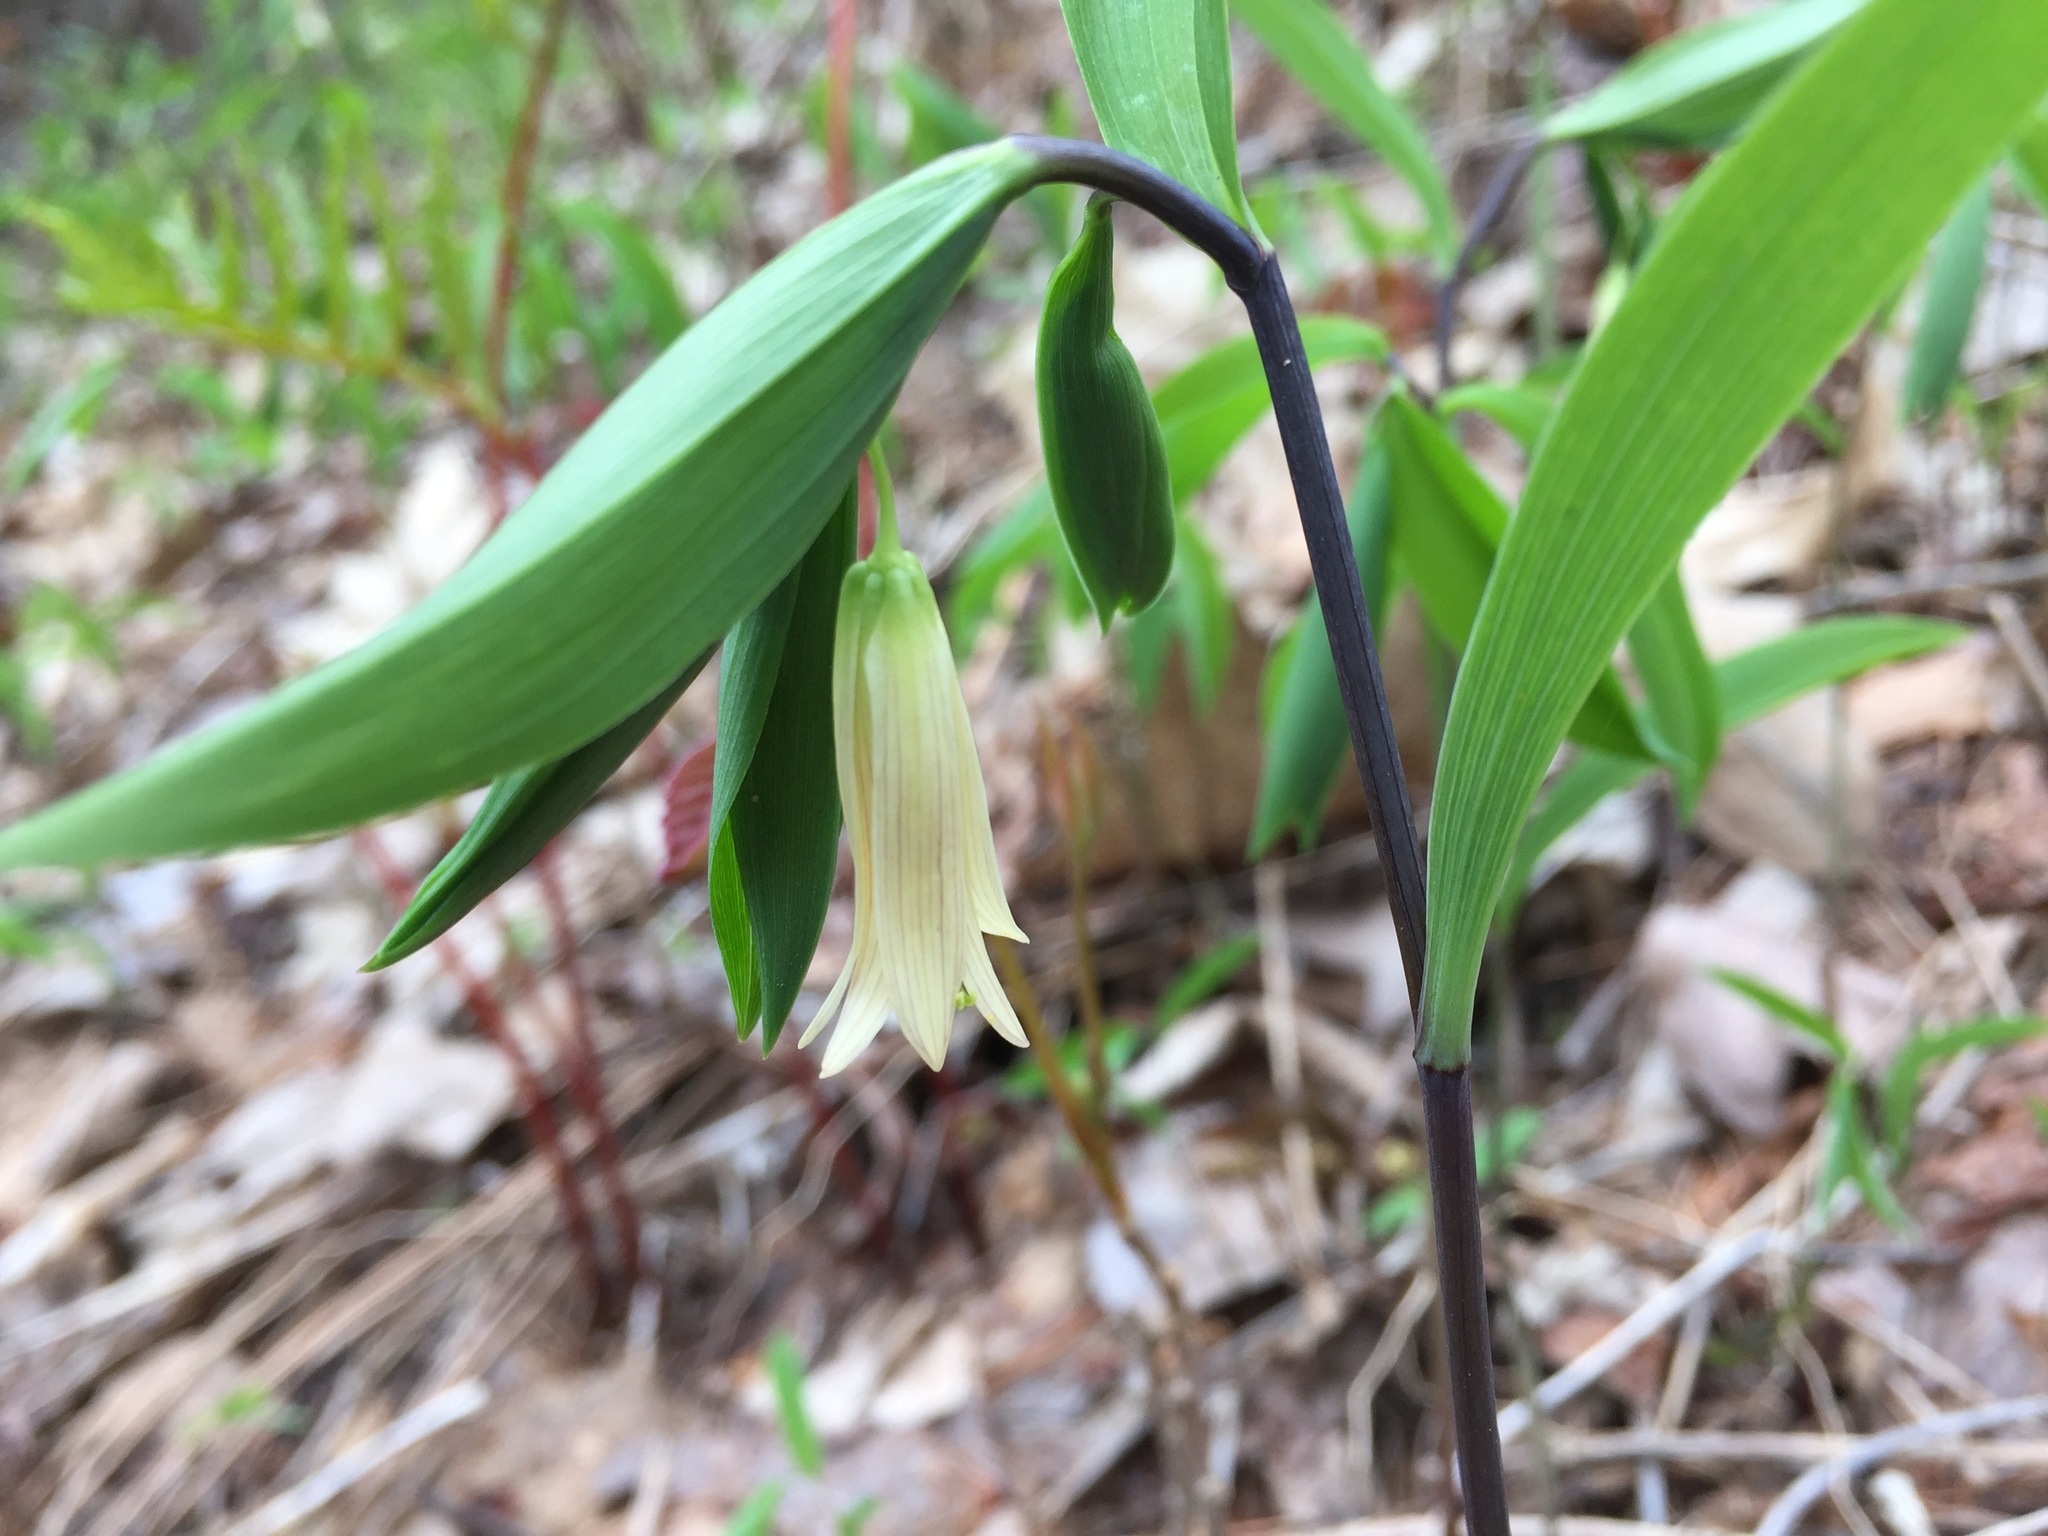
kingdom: Plantae
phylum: Tracheophyta
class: Liliopsida
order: Liliales
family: Colchicaceae
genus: Uvularia
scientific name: Uvularia sessilifolia
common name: Straw-lily
